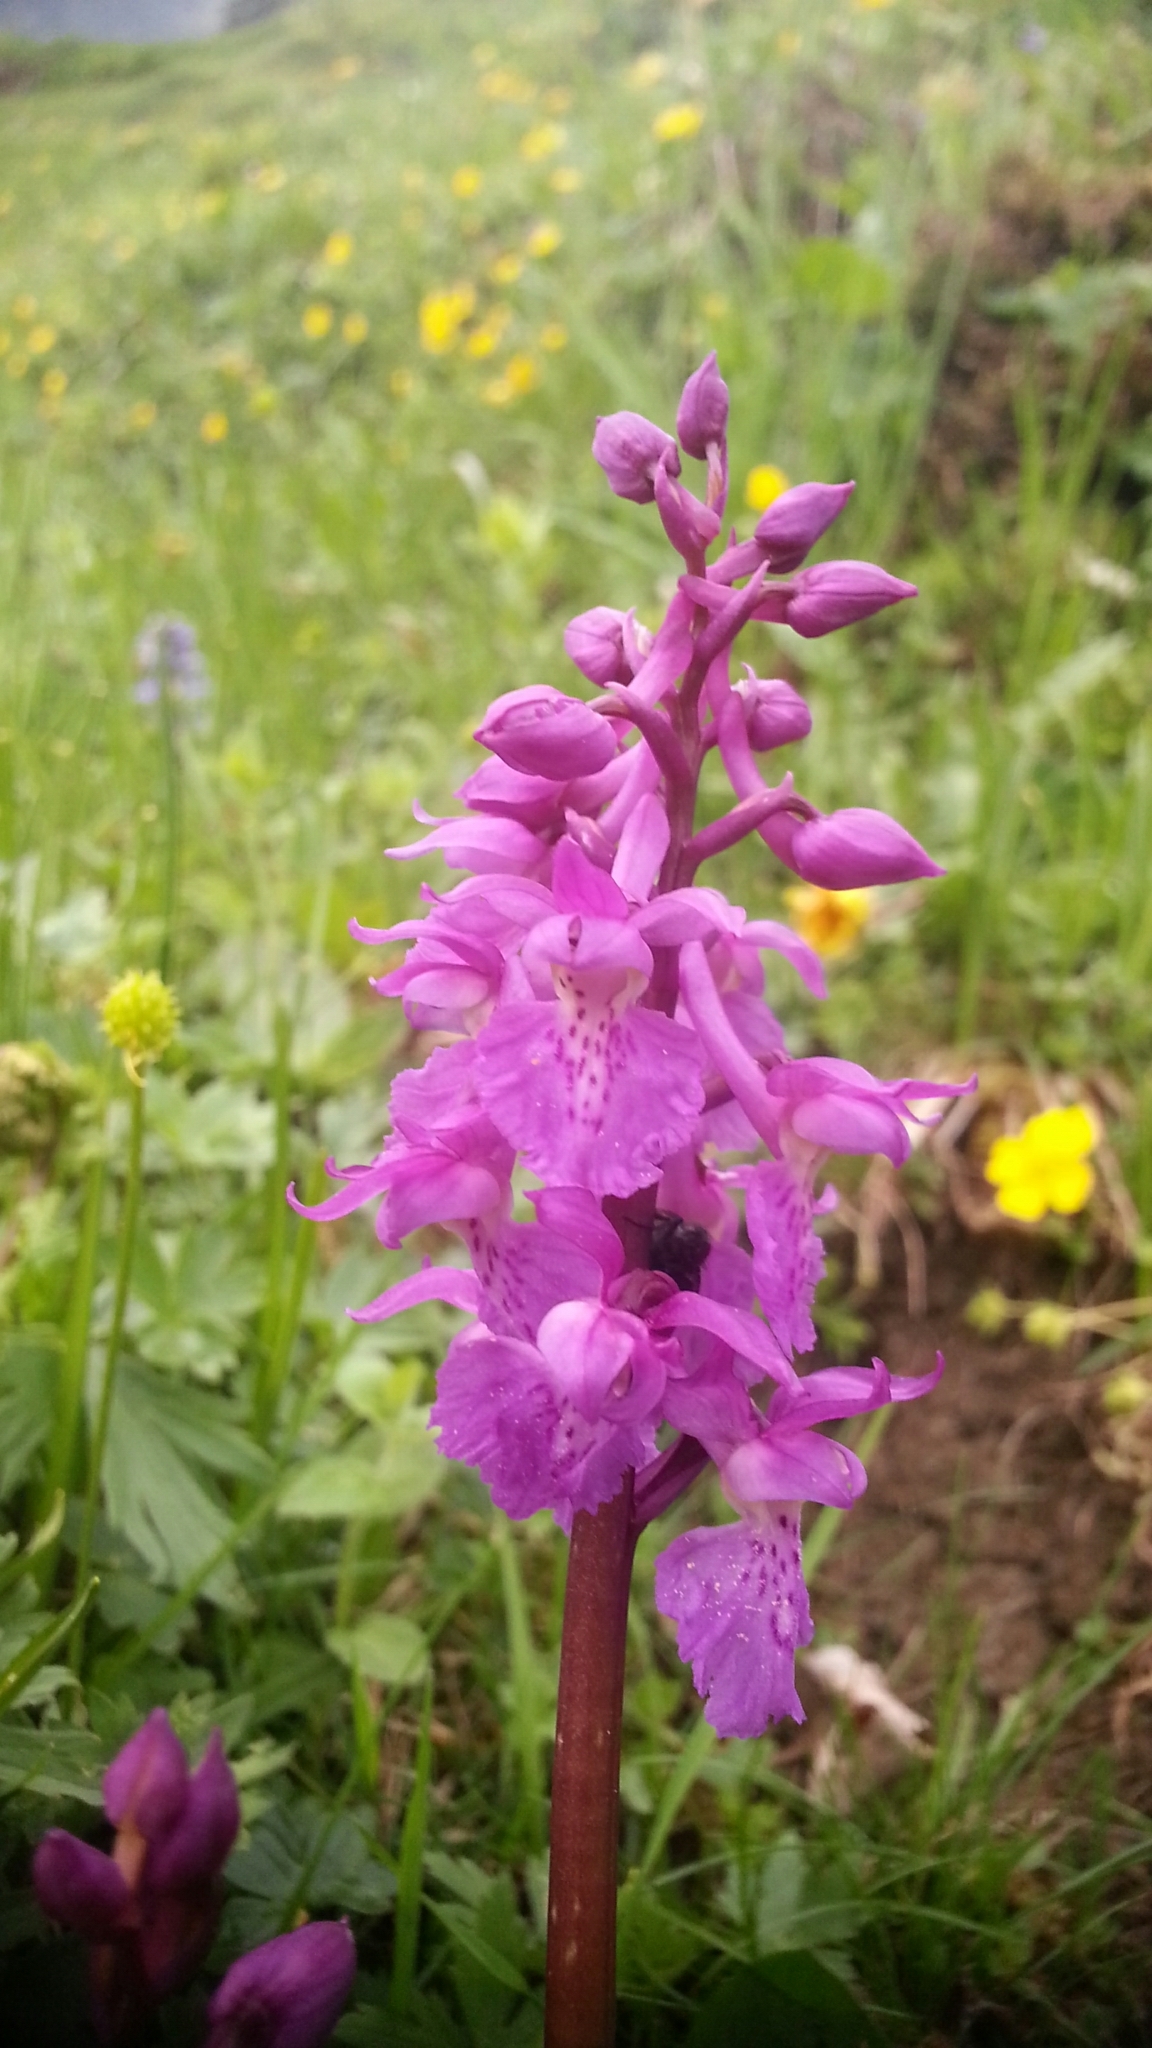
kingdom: Plantae
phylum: Tracheophyta
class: Liliopsida
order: Asparagales
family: Orchidaceae
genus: Orchis
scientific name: Orchis mascula
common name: Early-purple orchid
